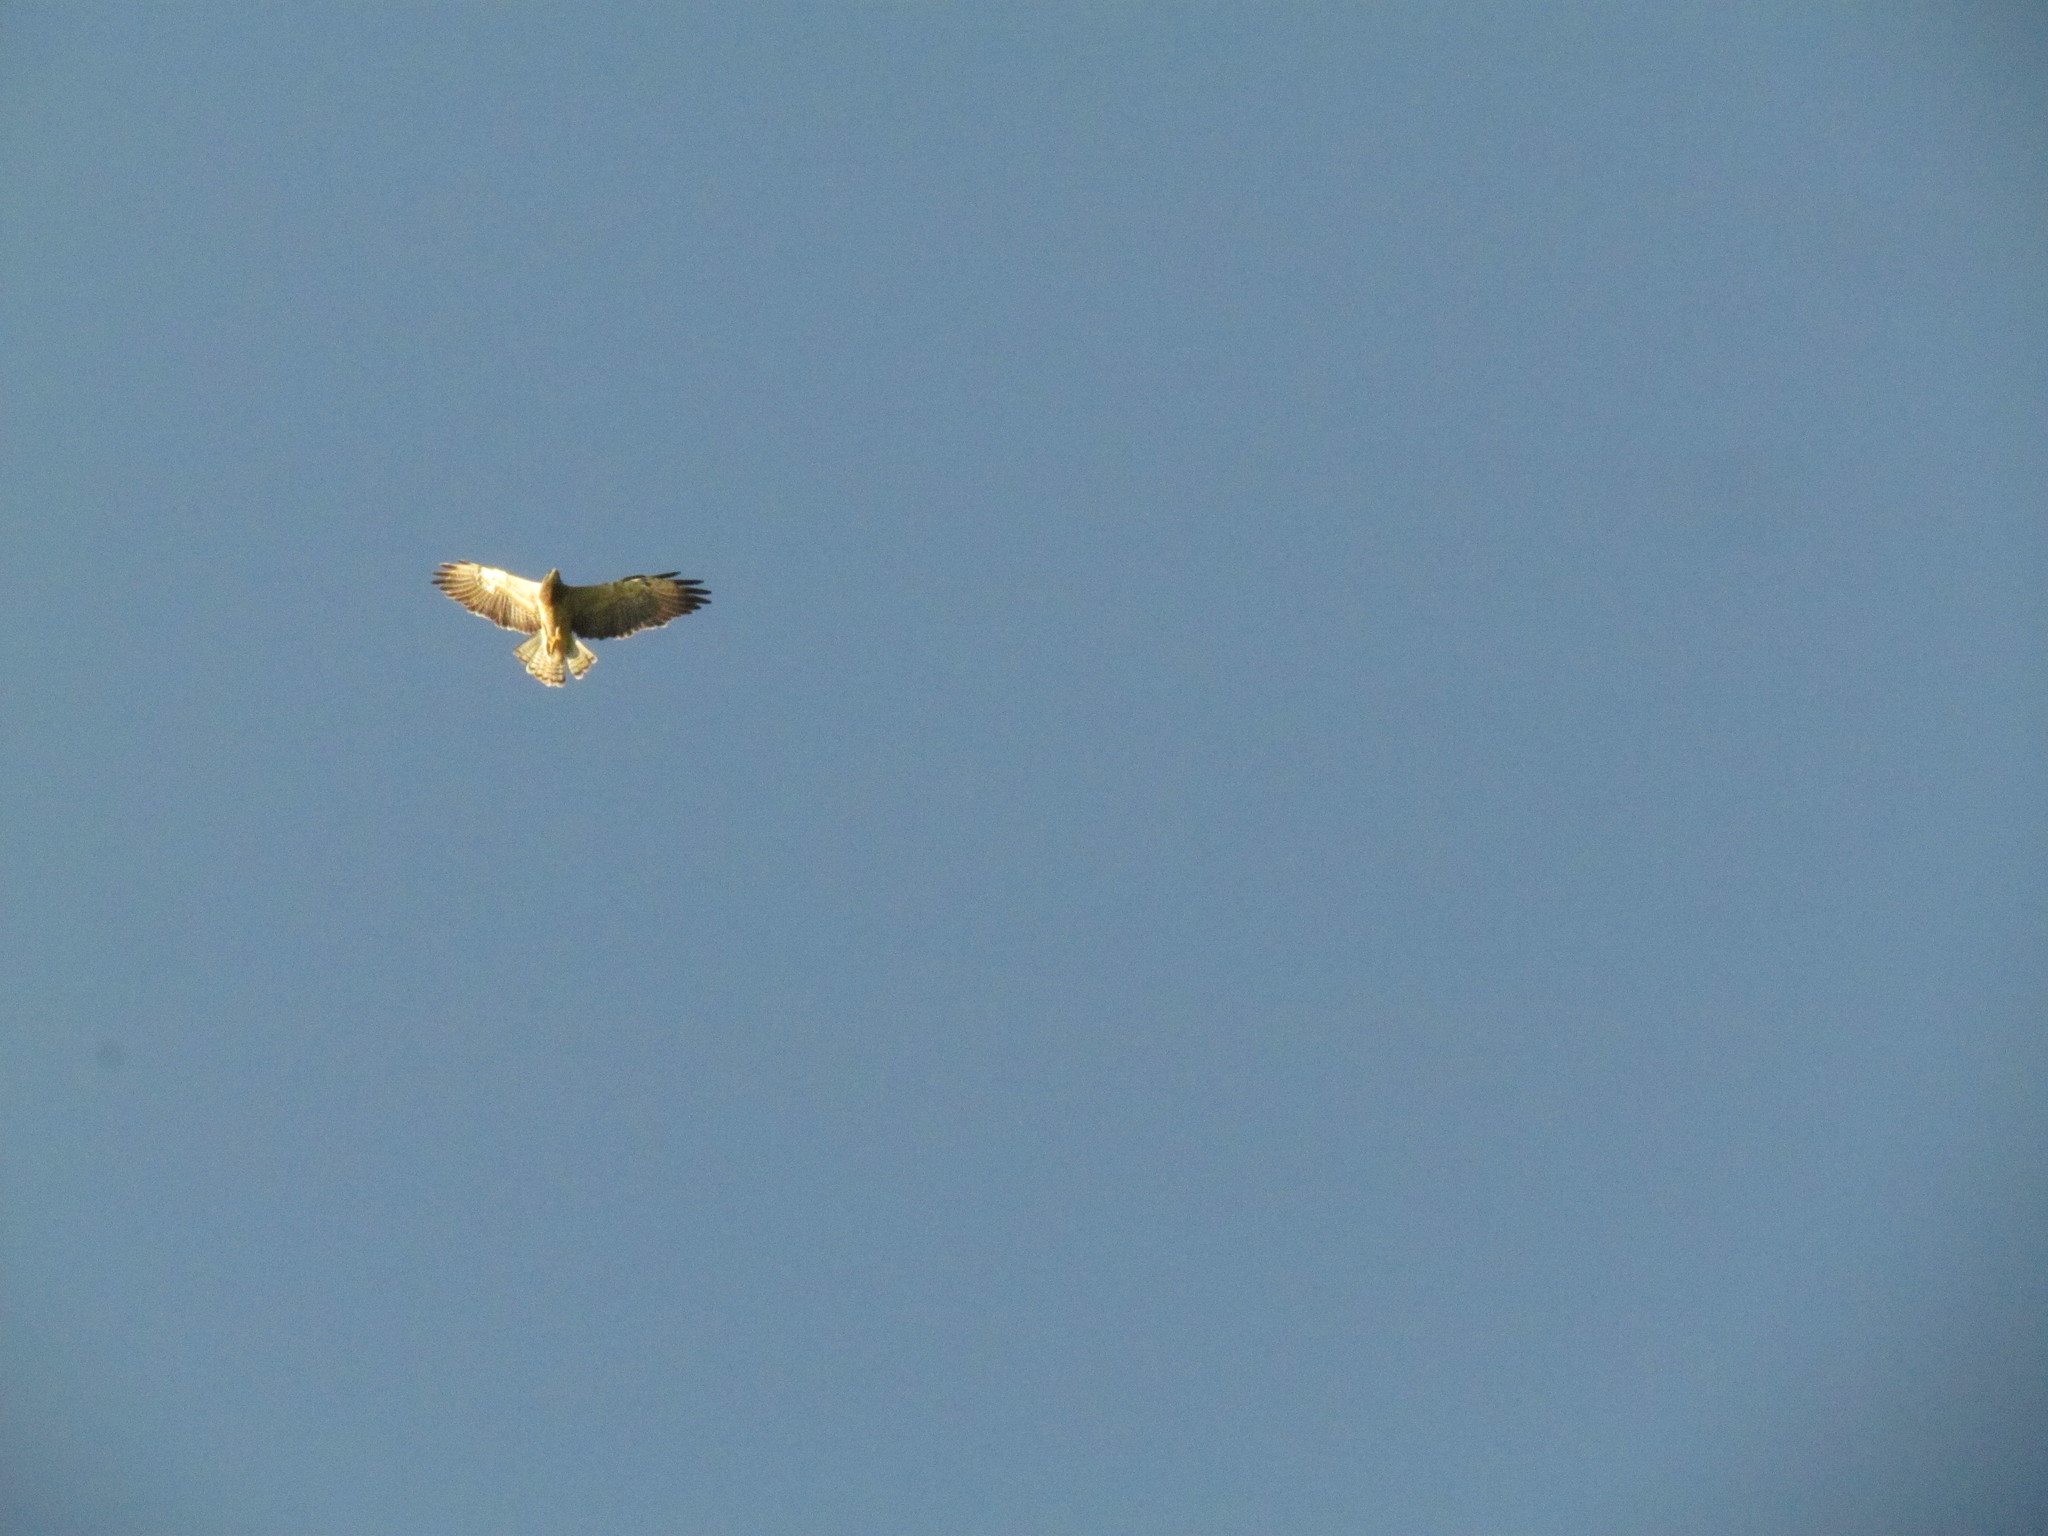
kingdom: Animalia
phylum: Chordata
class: Aves
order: Accipitriformes
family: Accipitridae
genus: Buteo
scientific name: Buteo swainsoni
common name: Swainson's hawk
